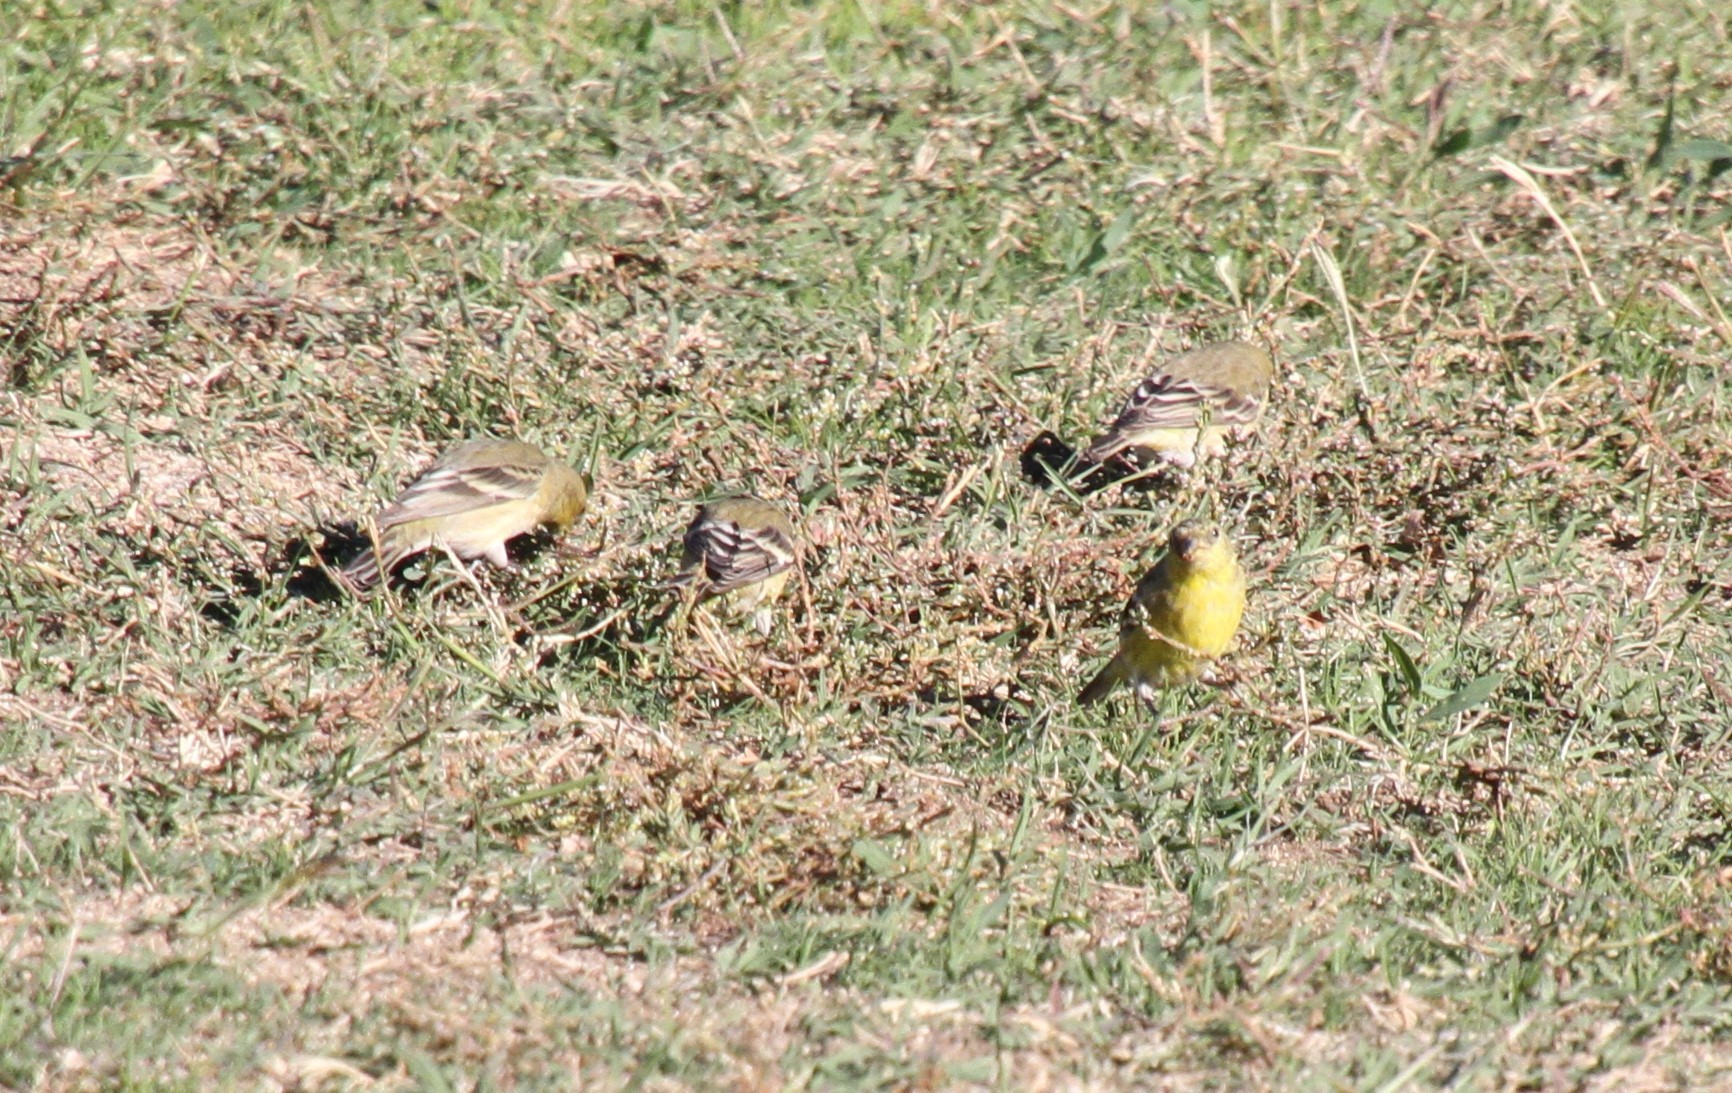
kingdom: Animalia
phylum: Chordata
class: Aves
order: Passeriformes
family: Fringillidae
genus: Spinus
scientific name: Spinus psaltria
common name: Lesser goldfinch
